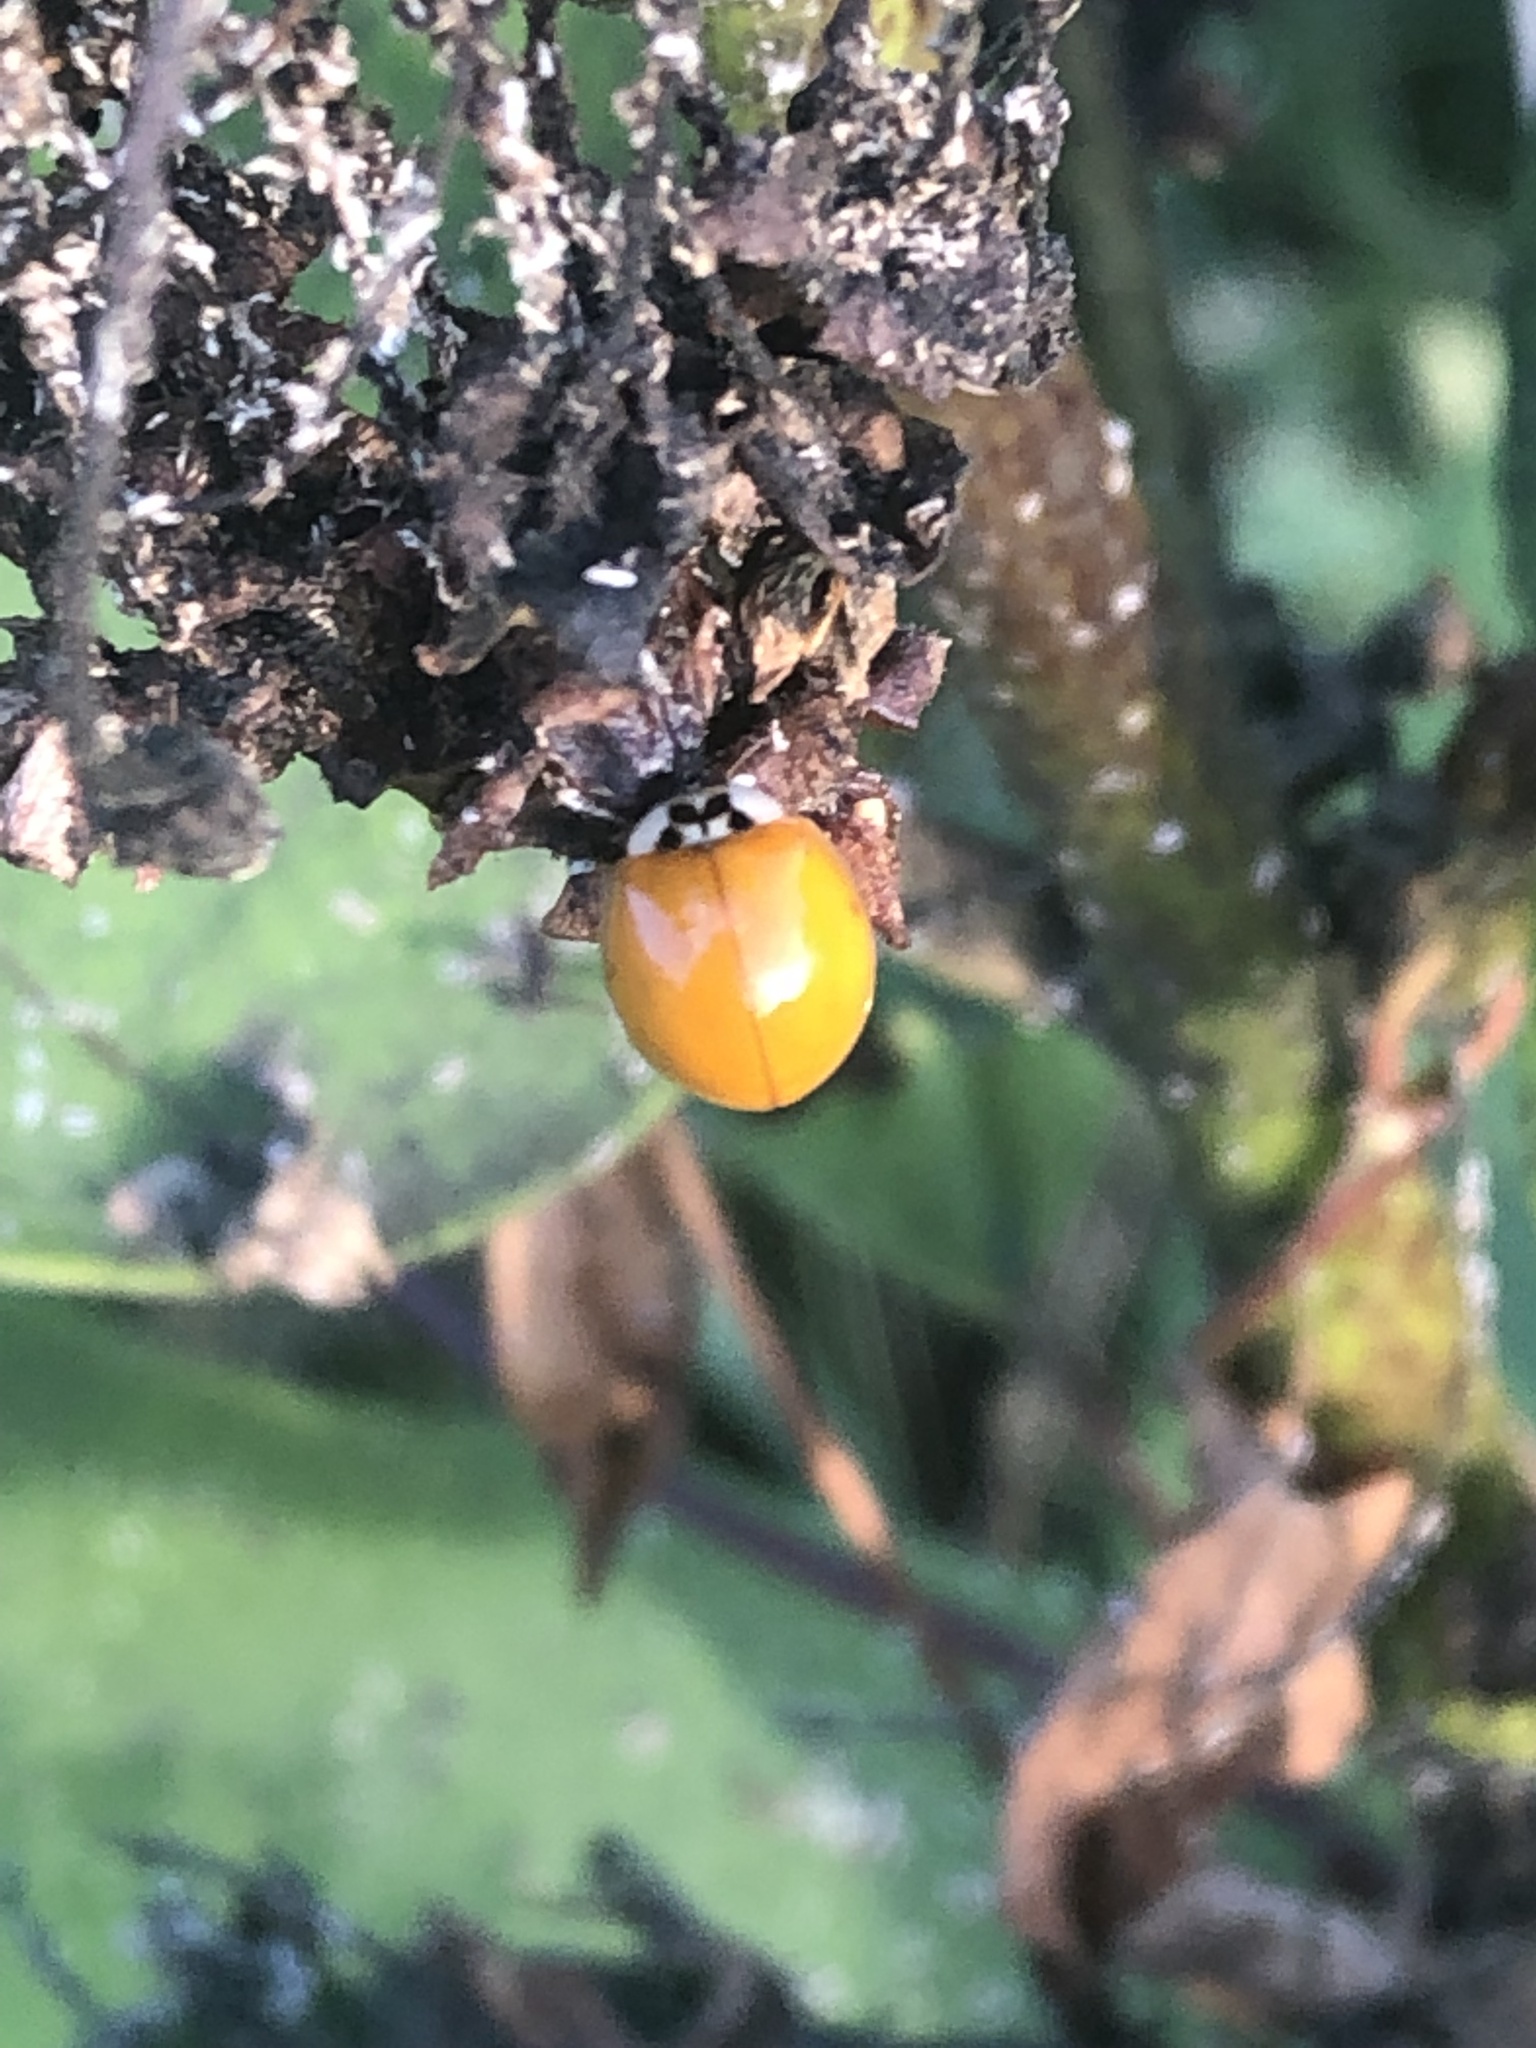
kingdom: Animalia
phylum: Arthropoda
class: Insecta
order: Coleoptera
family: Coccinellidae
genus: Harmonia
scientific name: Harmonia axyridis
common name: Harlequin ladybird
